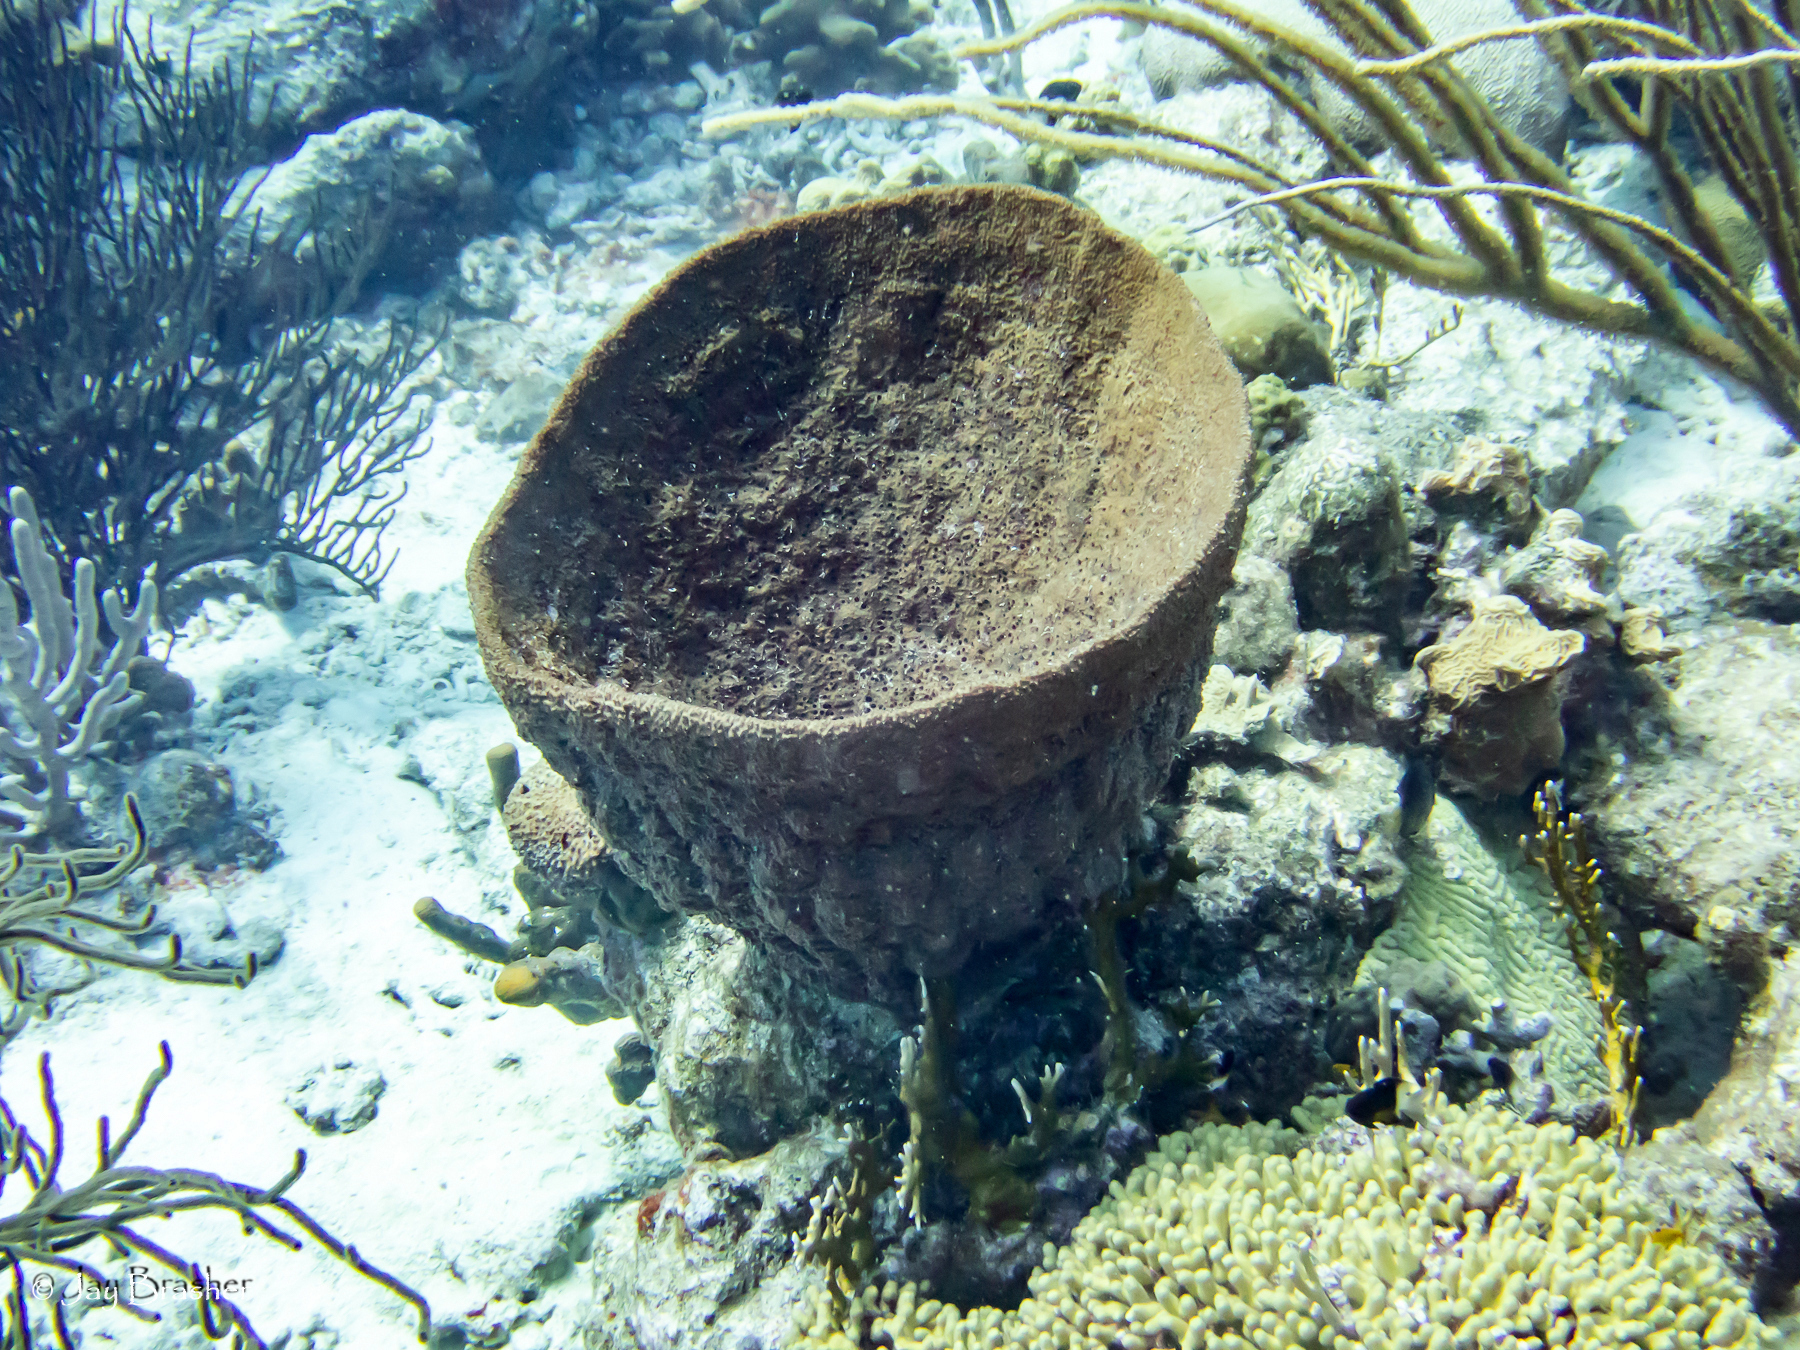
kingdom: Animalia
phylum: Porifera
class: Demospongiae
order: Dictyoceratida
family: Irciniidae
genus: Ircinia
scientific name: Ircinia campana
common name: Vase sponge
